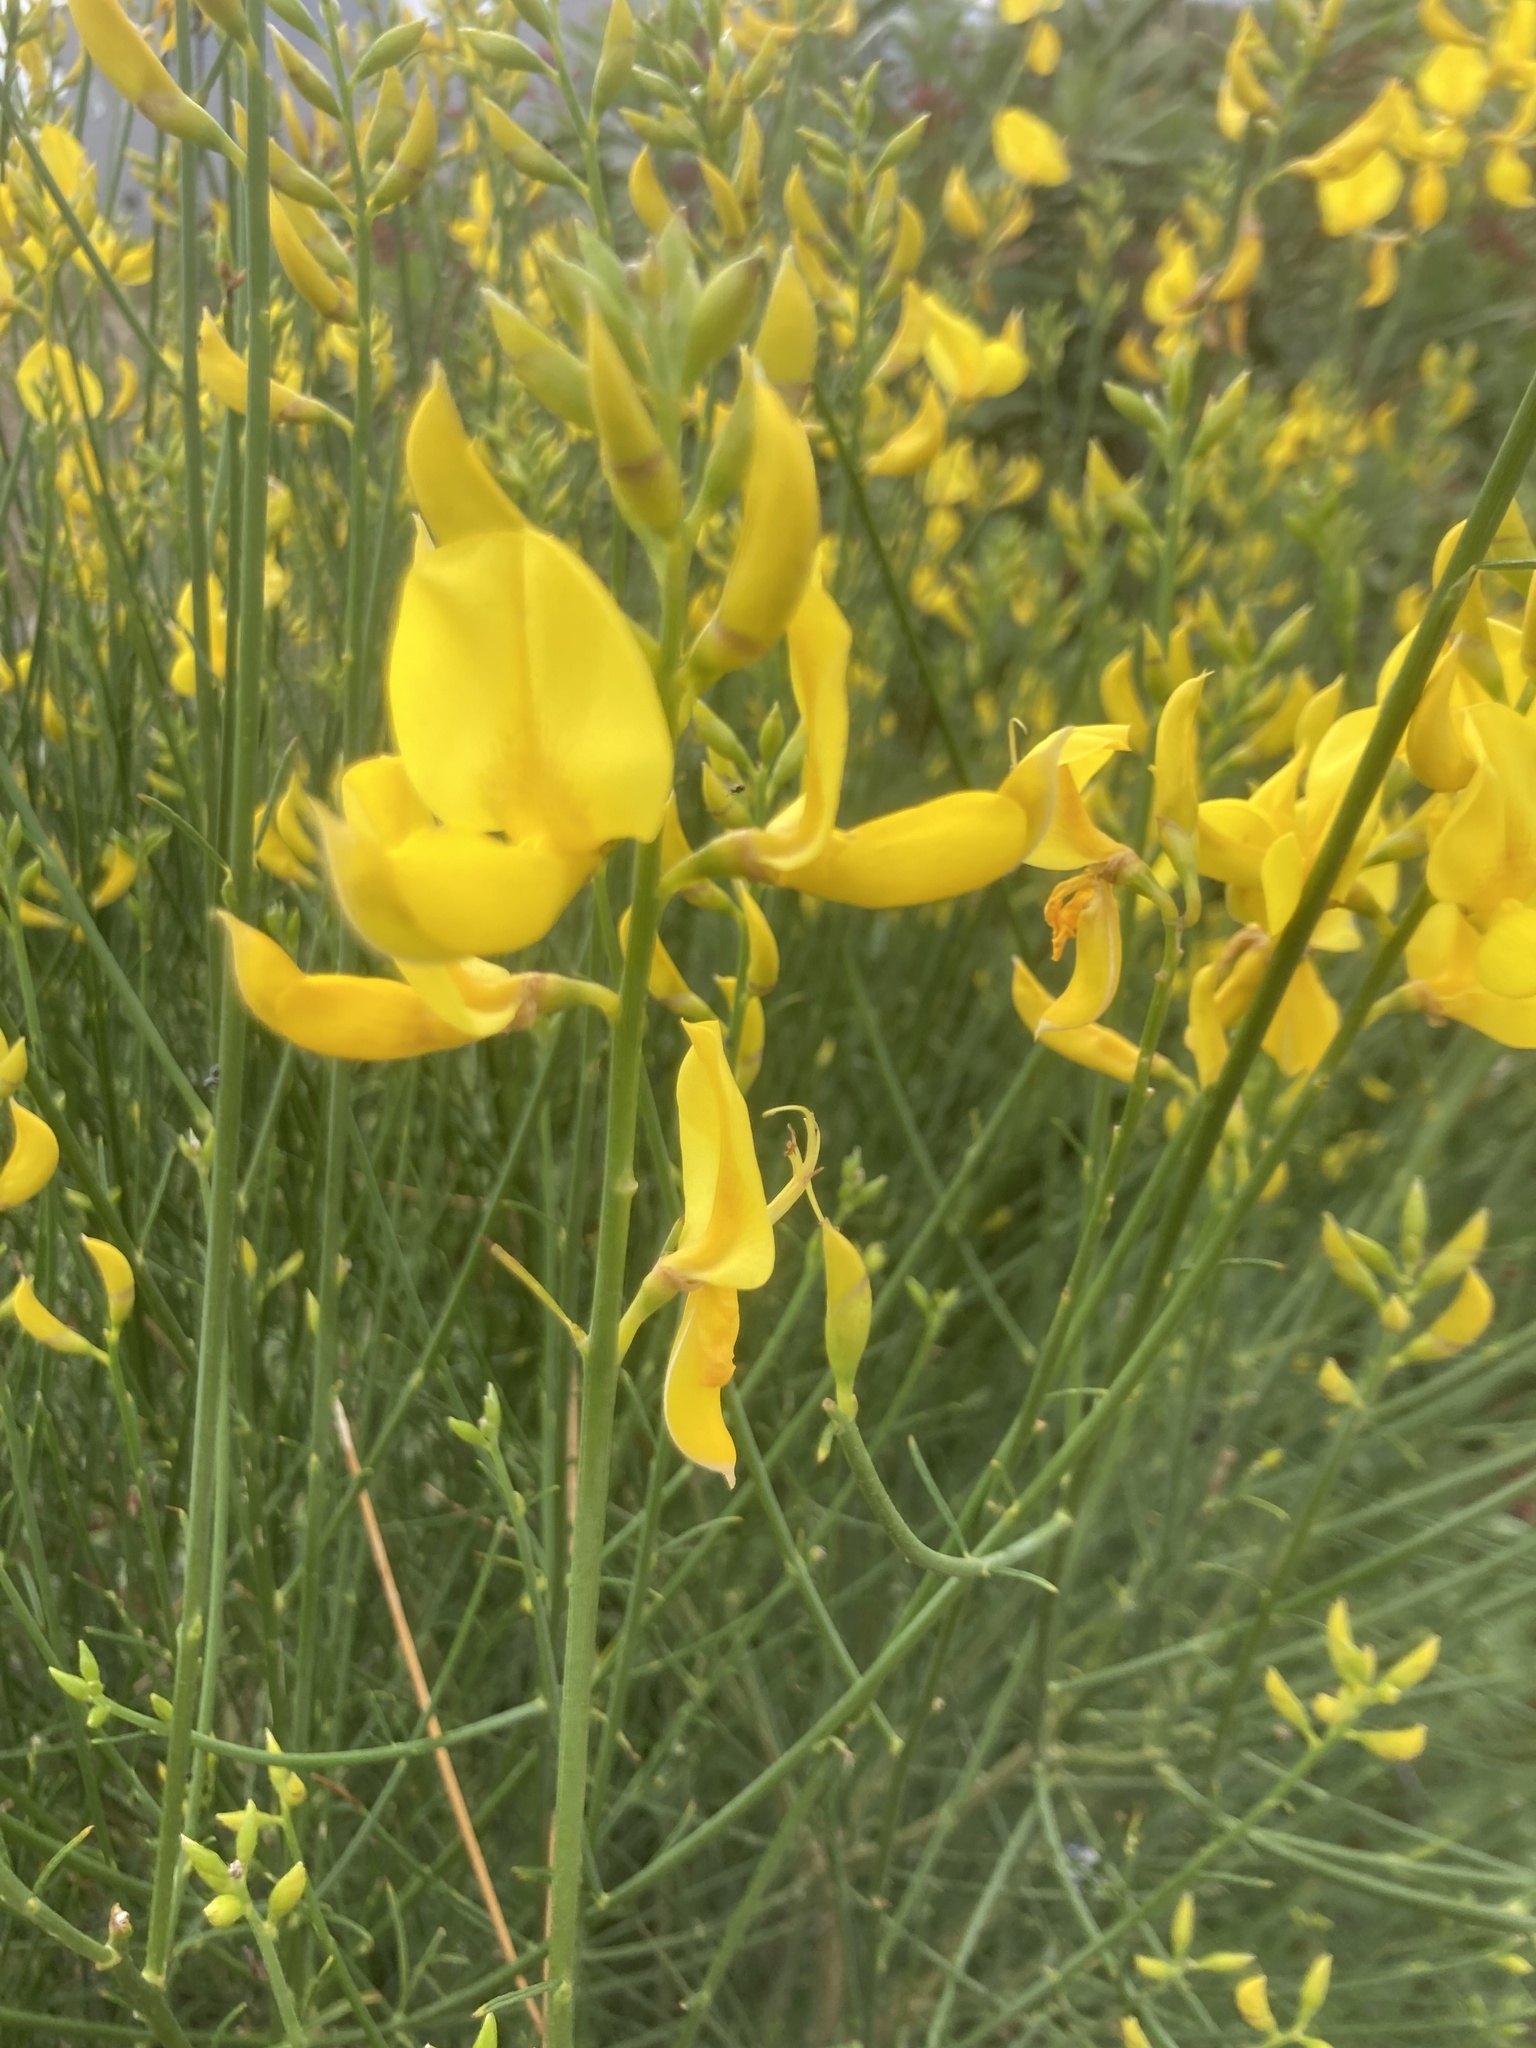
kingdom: Plantae
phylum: Tracheophyta
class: Magnoliopsida
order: Fabales
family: Fabaceae
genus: Spartium
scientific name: Spartium junceum
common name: Spanish broom
